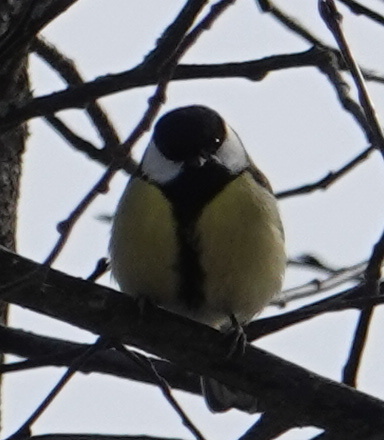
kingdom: Animalia
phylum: Chordata
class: Aves
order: Passeriformes
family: Paridae
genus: Parus
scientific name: Parus major
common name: Great tit
